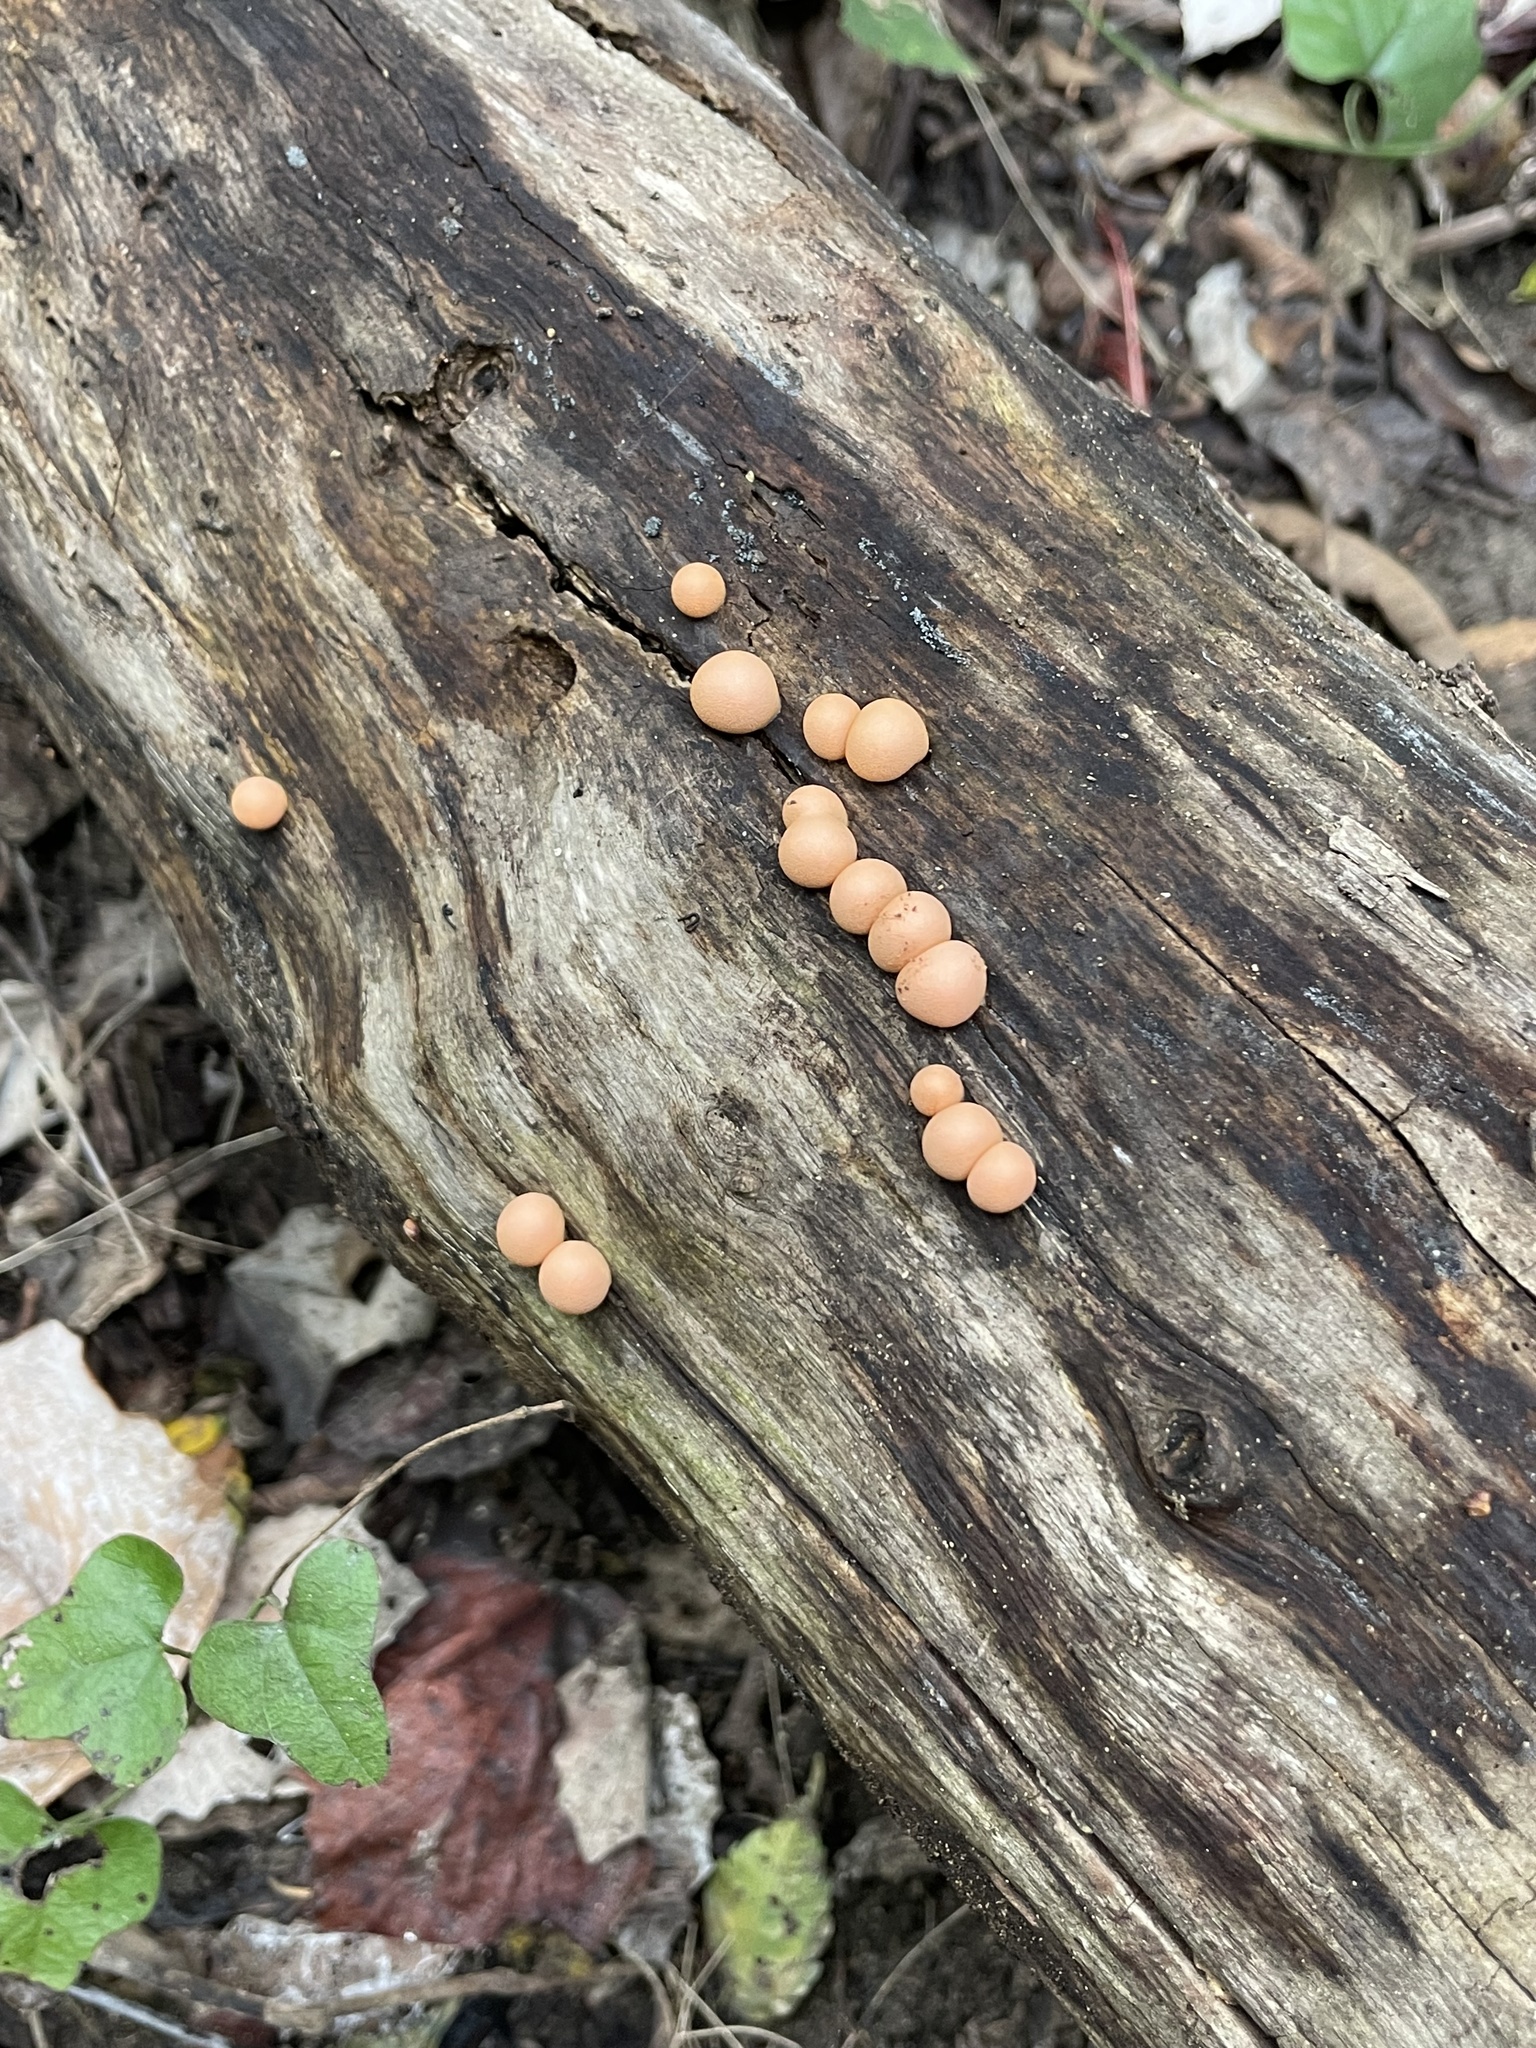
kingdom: Protozoa
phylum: Mycetozoa
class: Myxomycetes
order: Cribrariales
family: Tubiferaceae
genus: Lycogala
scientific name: Lycogala epidendrum
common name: Wolf's milk
